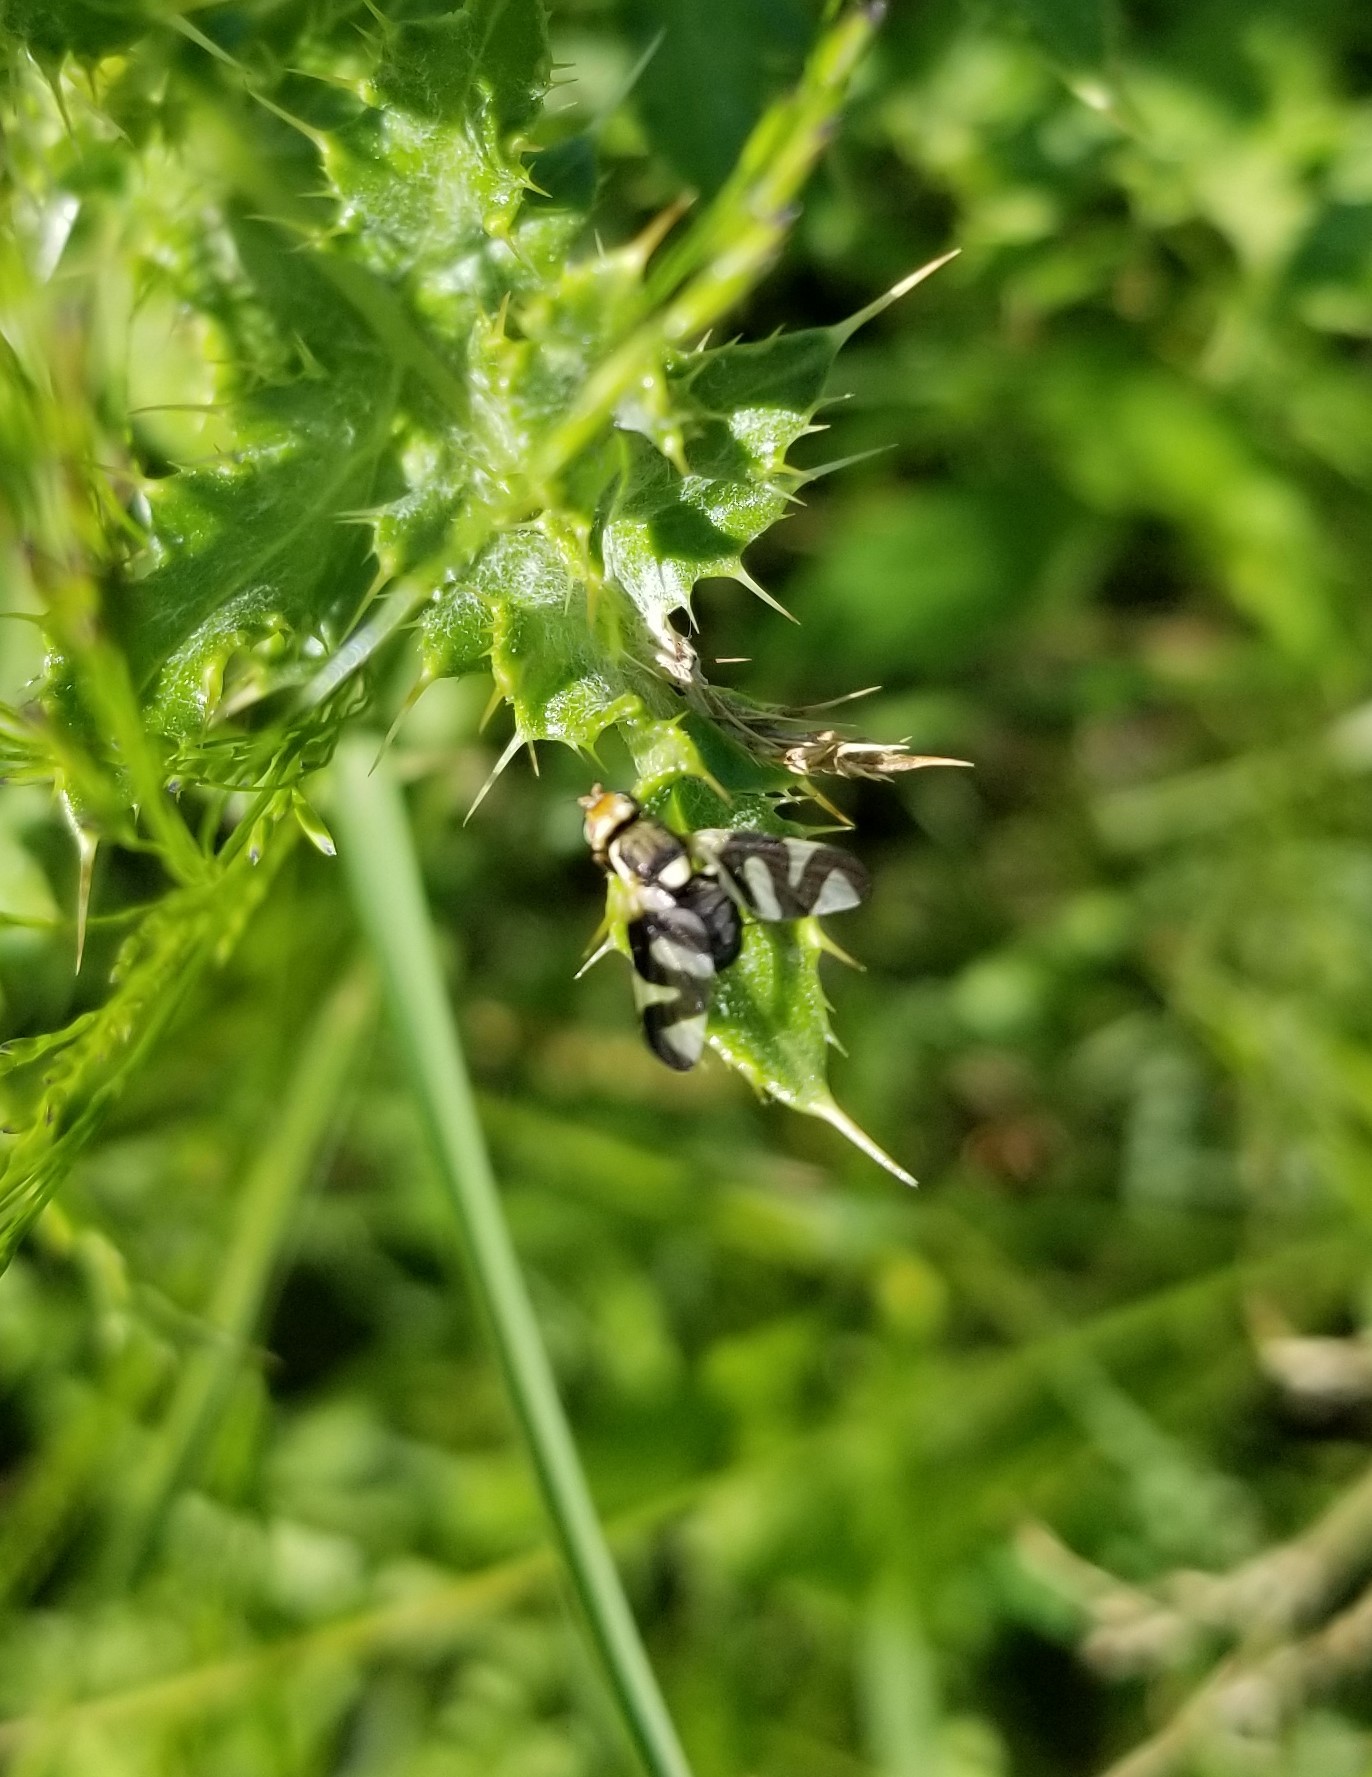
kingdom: Animalia
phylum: Arthropoda
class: Insecta
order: Diptera
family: Tephritidae
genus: Urophora
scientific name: Urophora cardui
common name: Fruit fly
